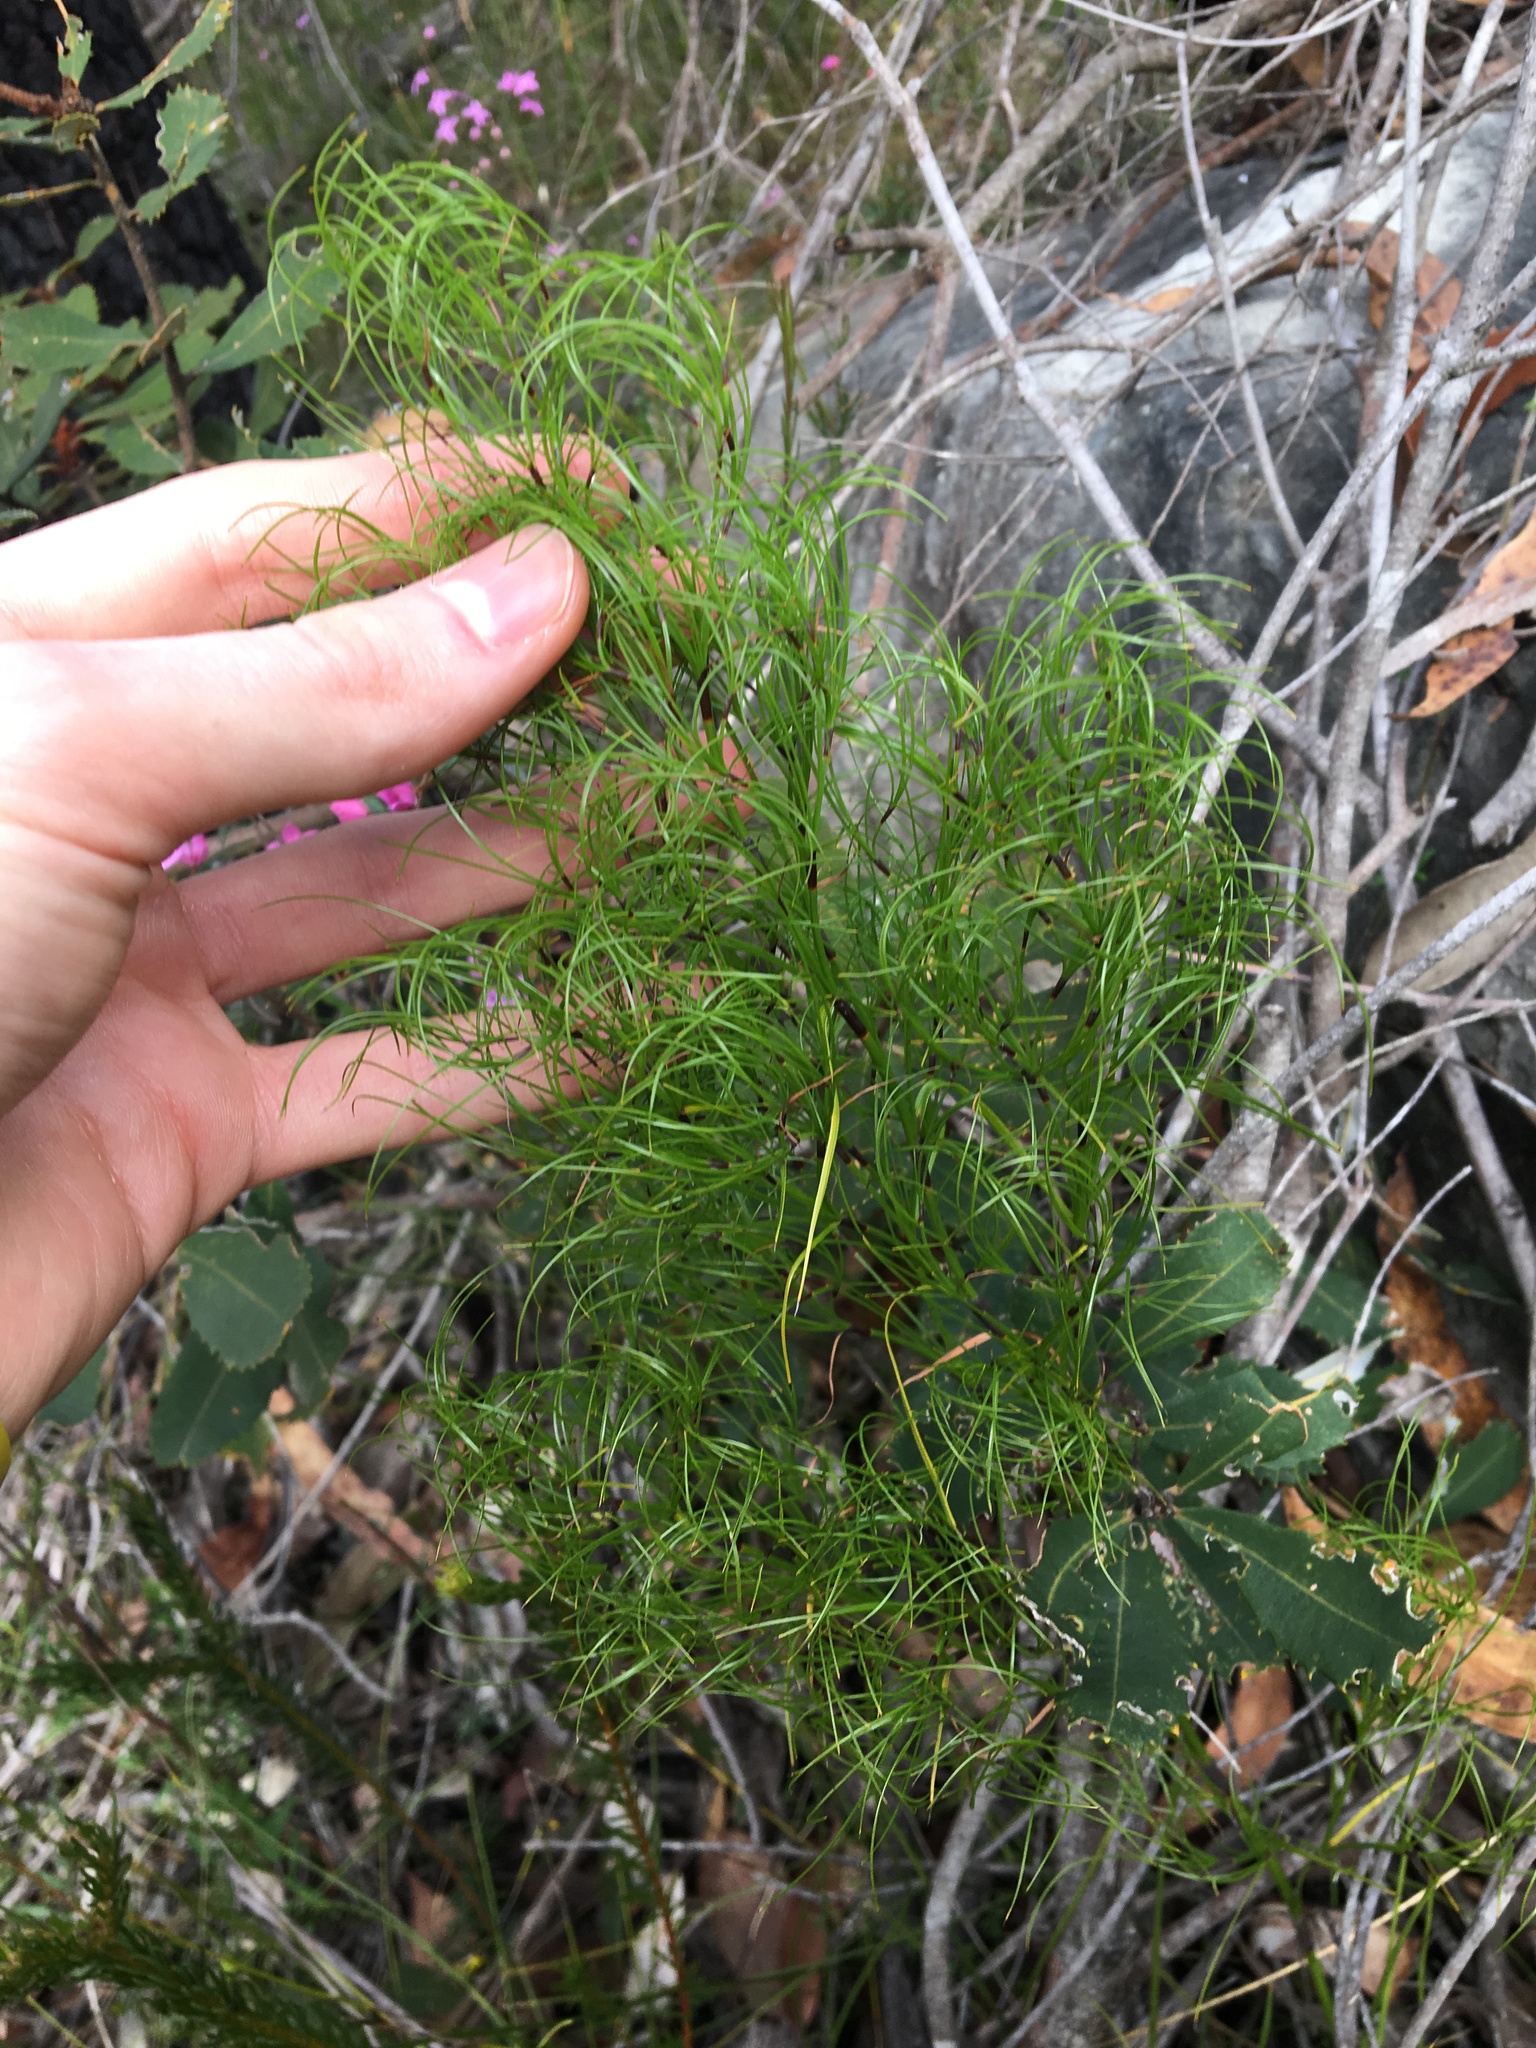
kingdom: Plantae
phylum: Tracheophyta
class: Liliopsida
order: Poales
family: Cyperaceae
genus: Caustis
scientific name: Caustis flexuosa
